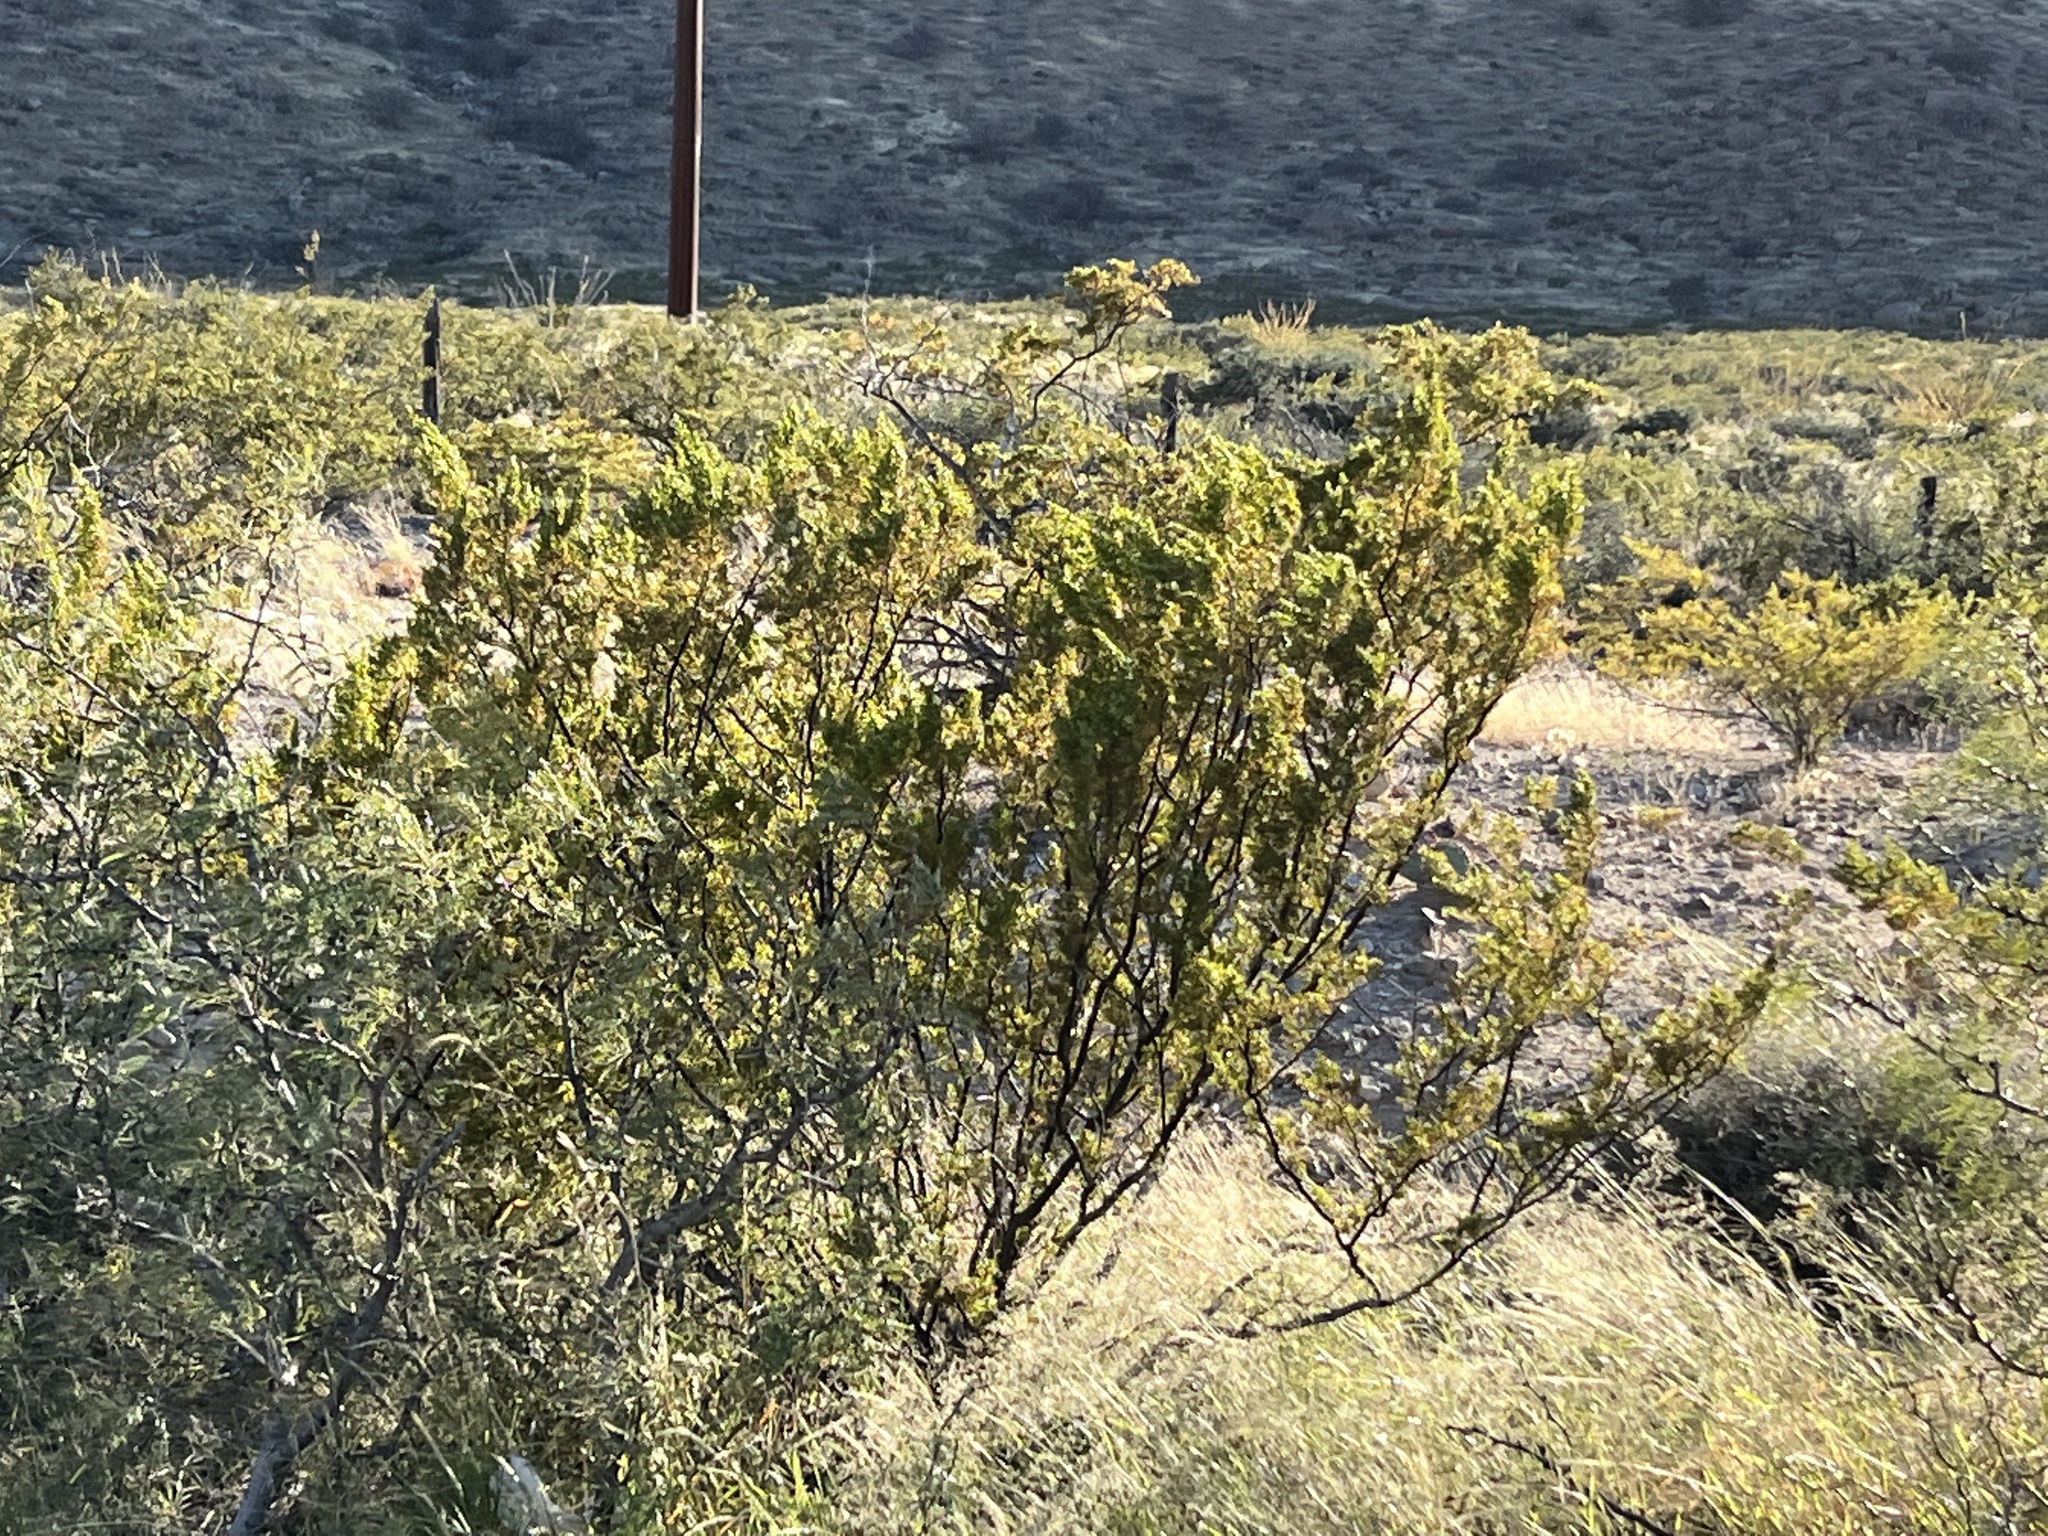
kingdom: Plantae
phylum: Tracheophyta
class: Magnoliopsida
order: Zygophyllales
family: Zygophyllaceae
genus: Larrea
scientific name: Larrea tridentata
